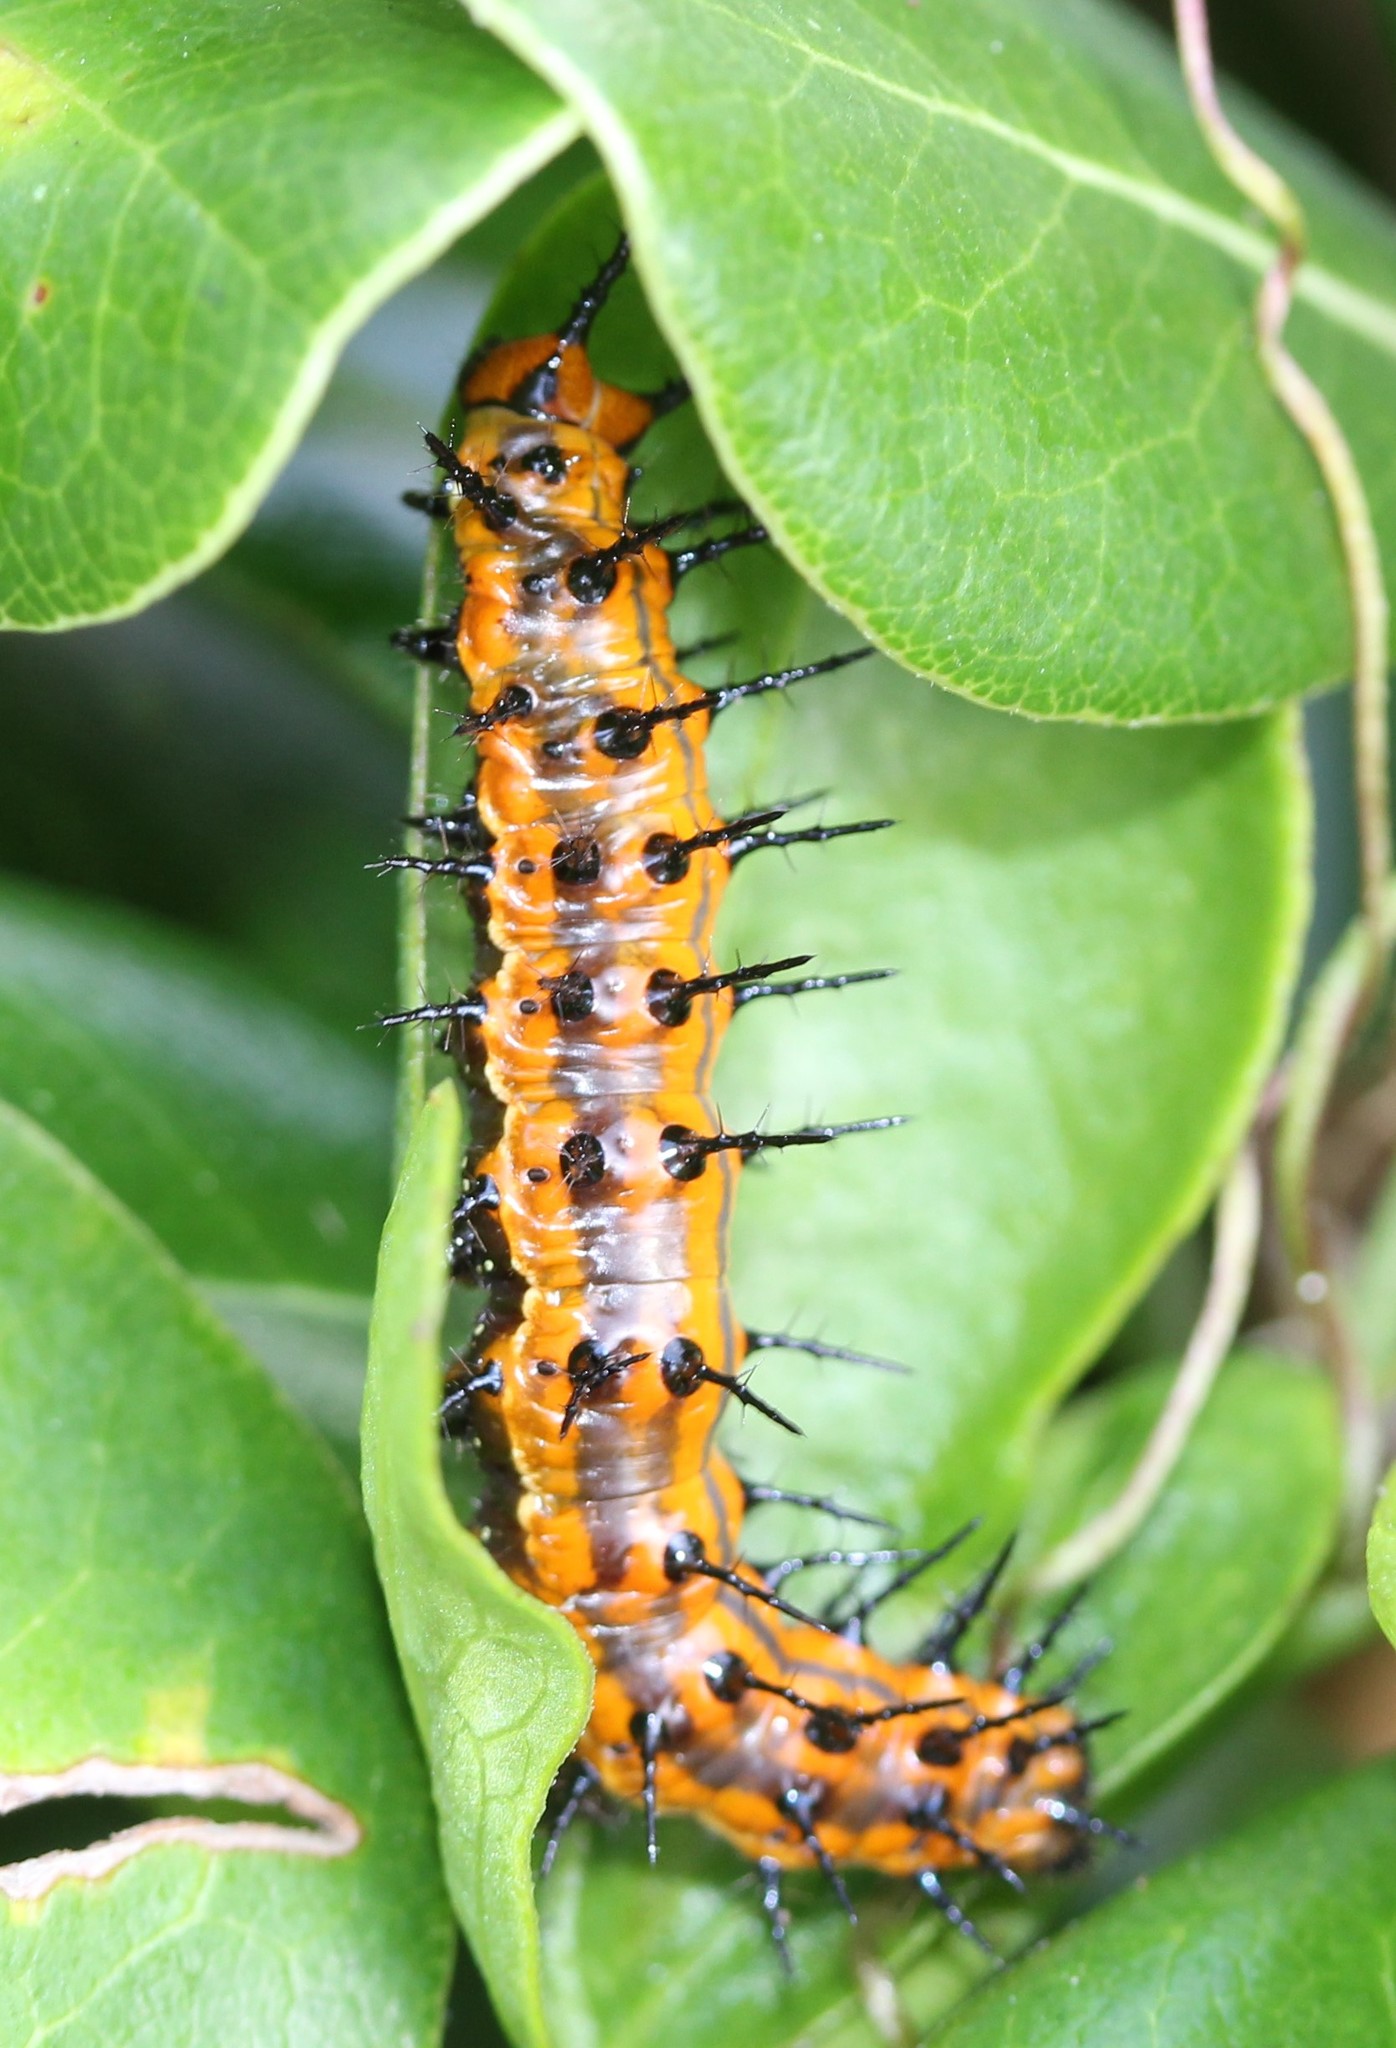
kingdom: Animalia
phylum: Arthropoda
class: Insecta
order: Lepidoptera
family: Nymphalidae
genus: Dione
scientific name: Dione vanillae
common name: Gulf fritillary
